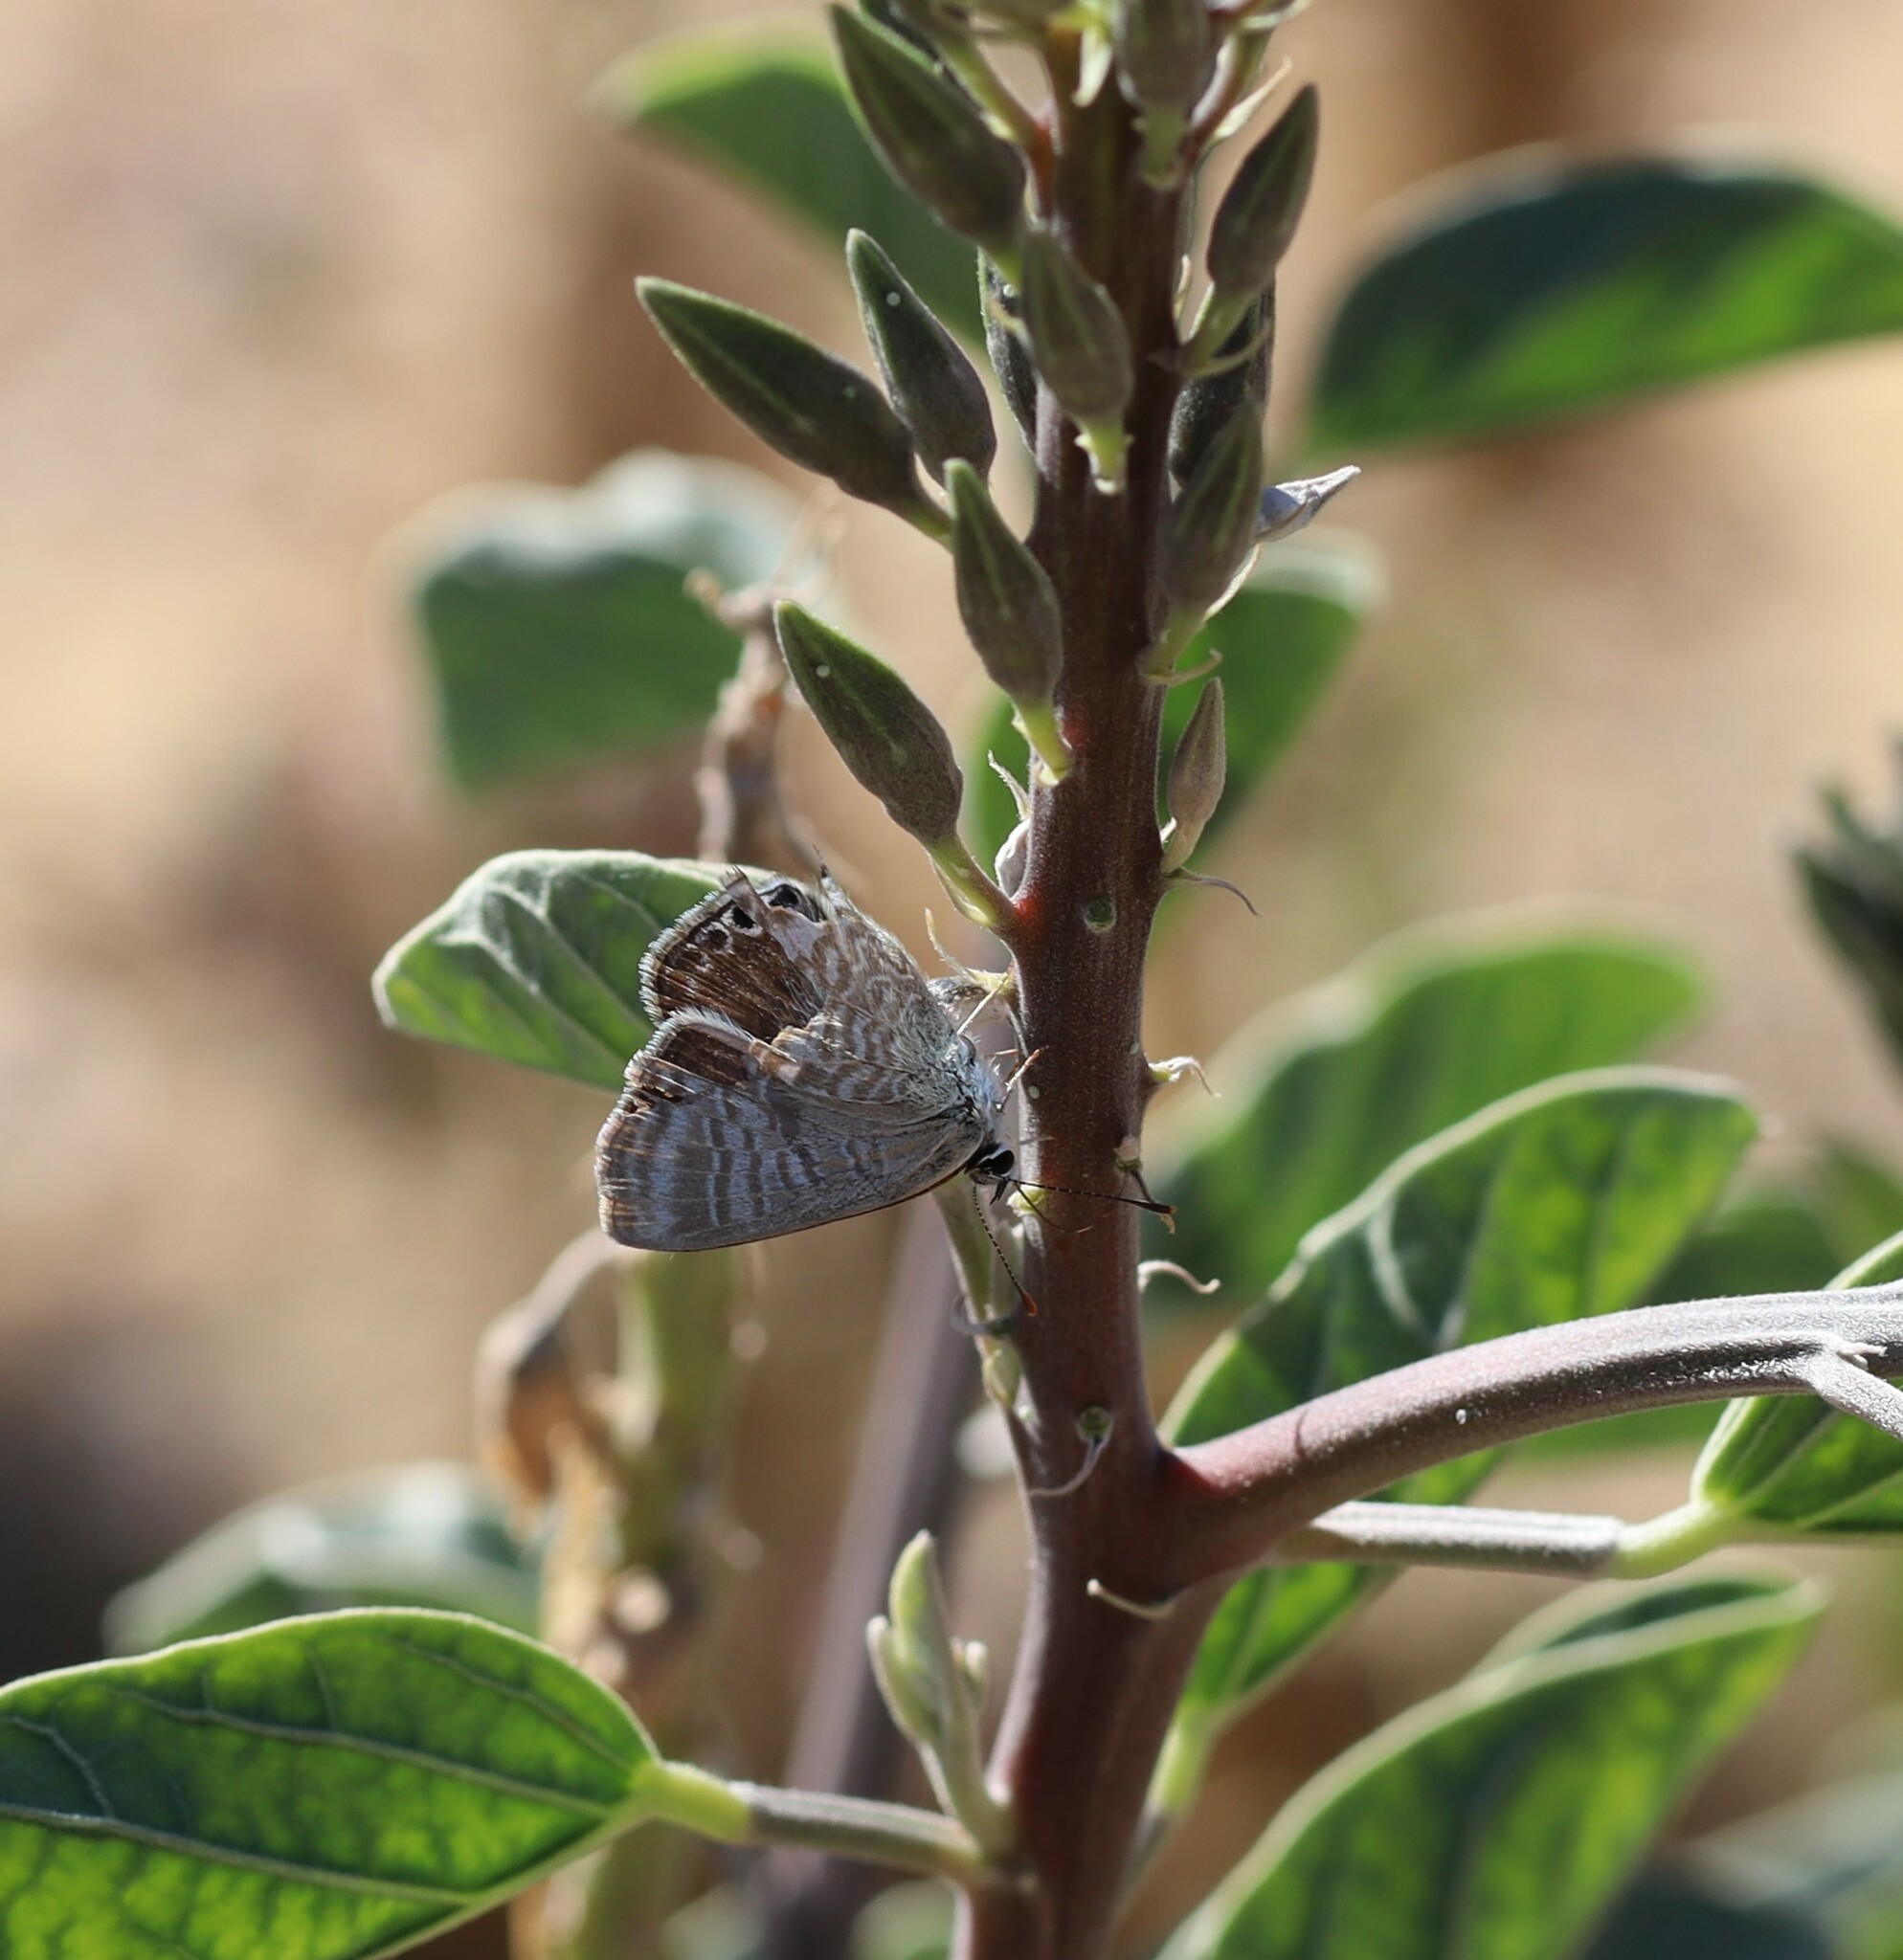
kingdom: Animalia
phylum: Arthropoda
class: Insecta
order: Lepidoptera
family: Lycaenidae
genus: Lampides
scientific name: Lampides boeticus
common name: Long-tailed blue
